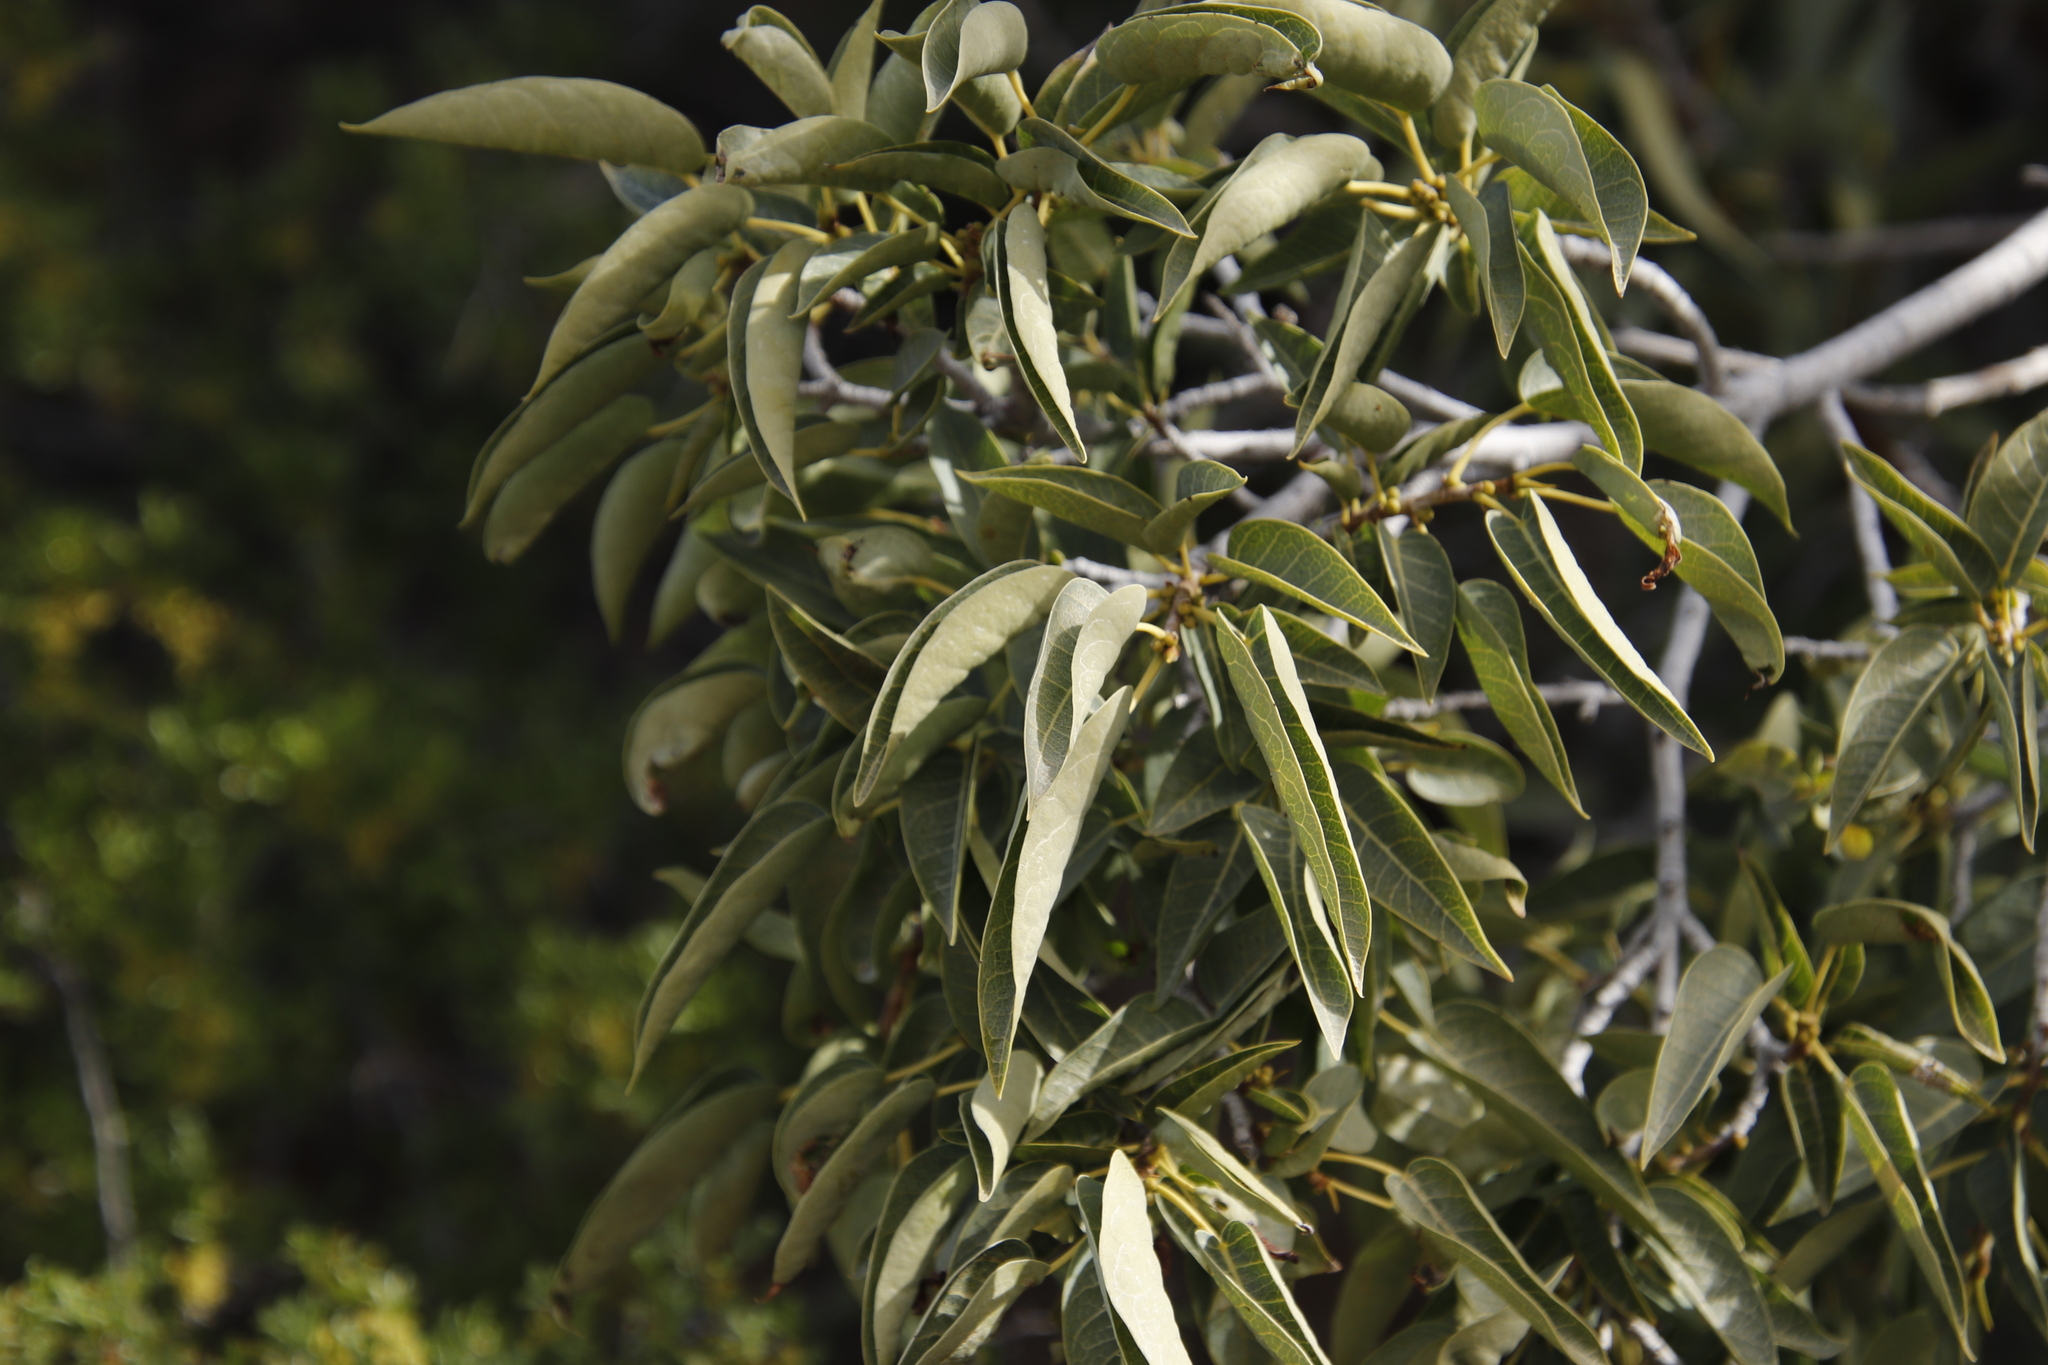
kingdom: Plantae
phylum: Tracheophyta
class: Magnoliopsida
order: Rosales
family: Moraceae
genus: Ficus
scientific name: Ficus cordata
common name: Namaqua rock fig
